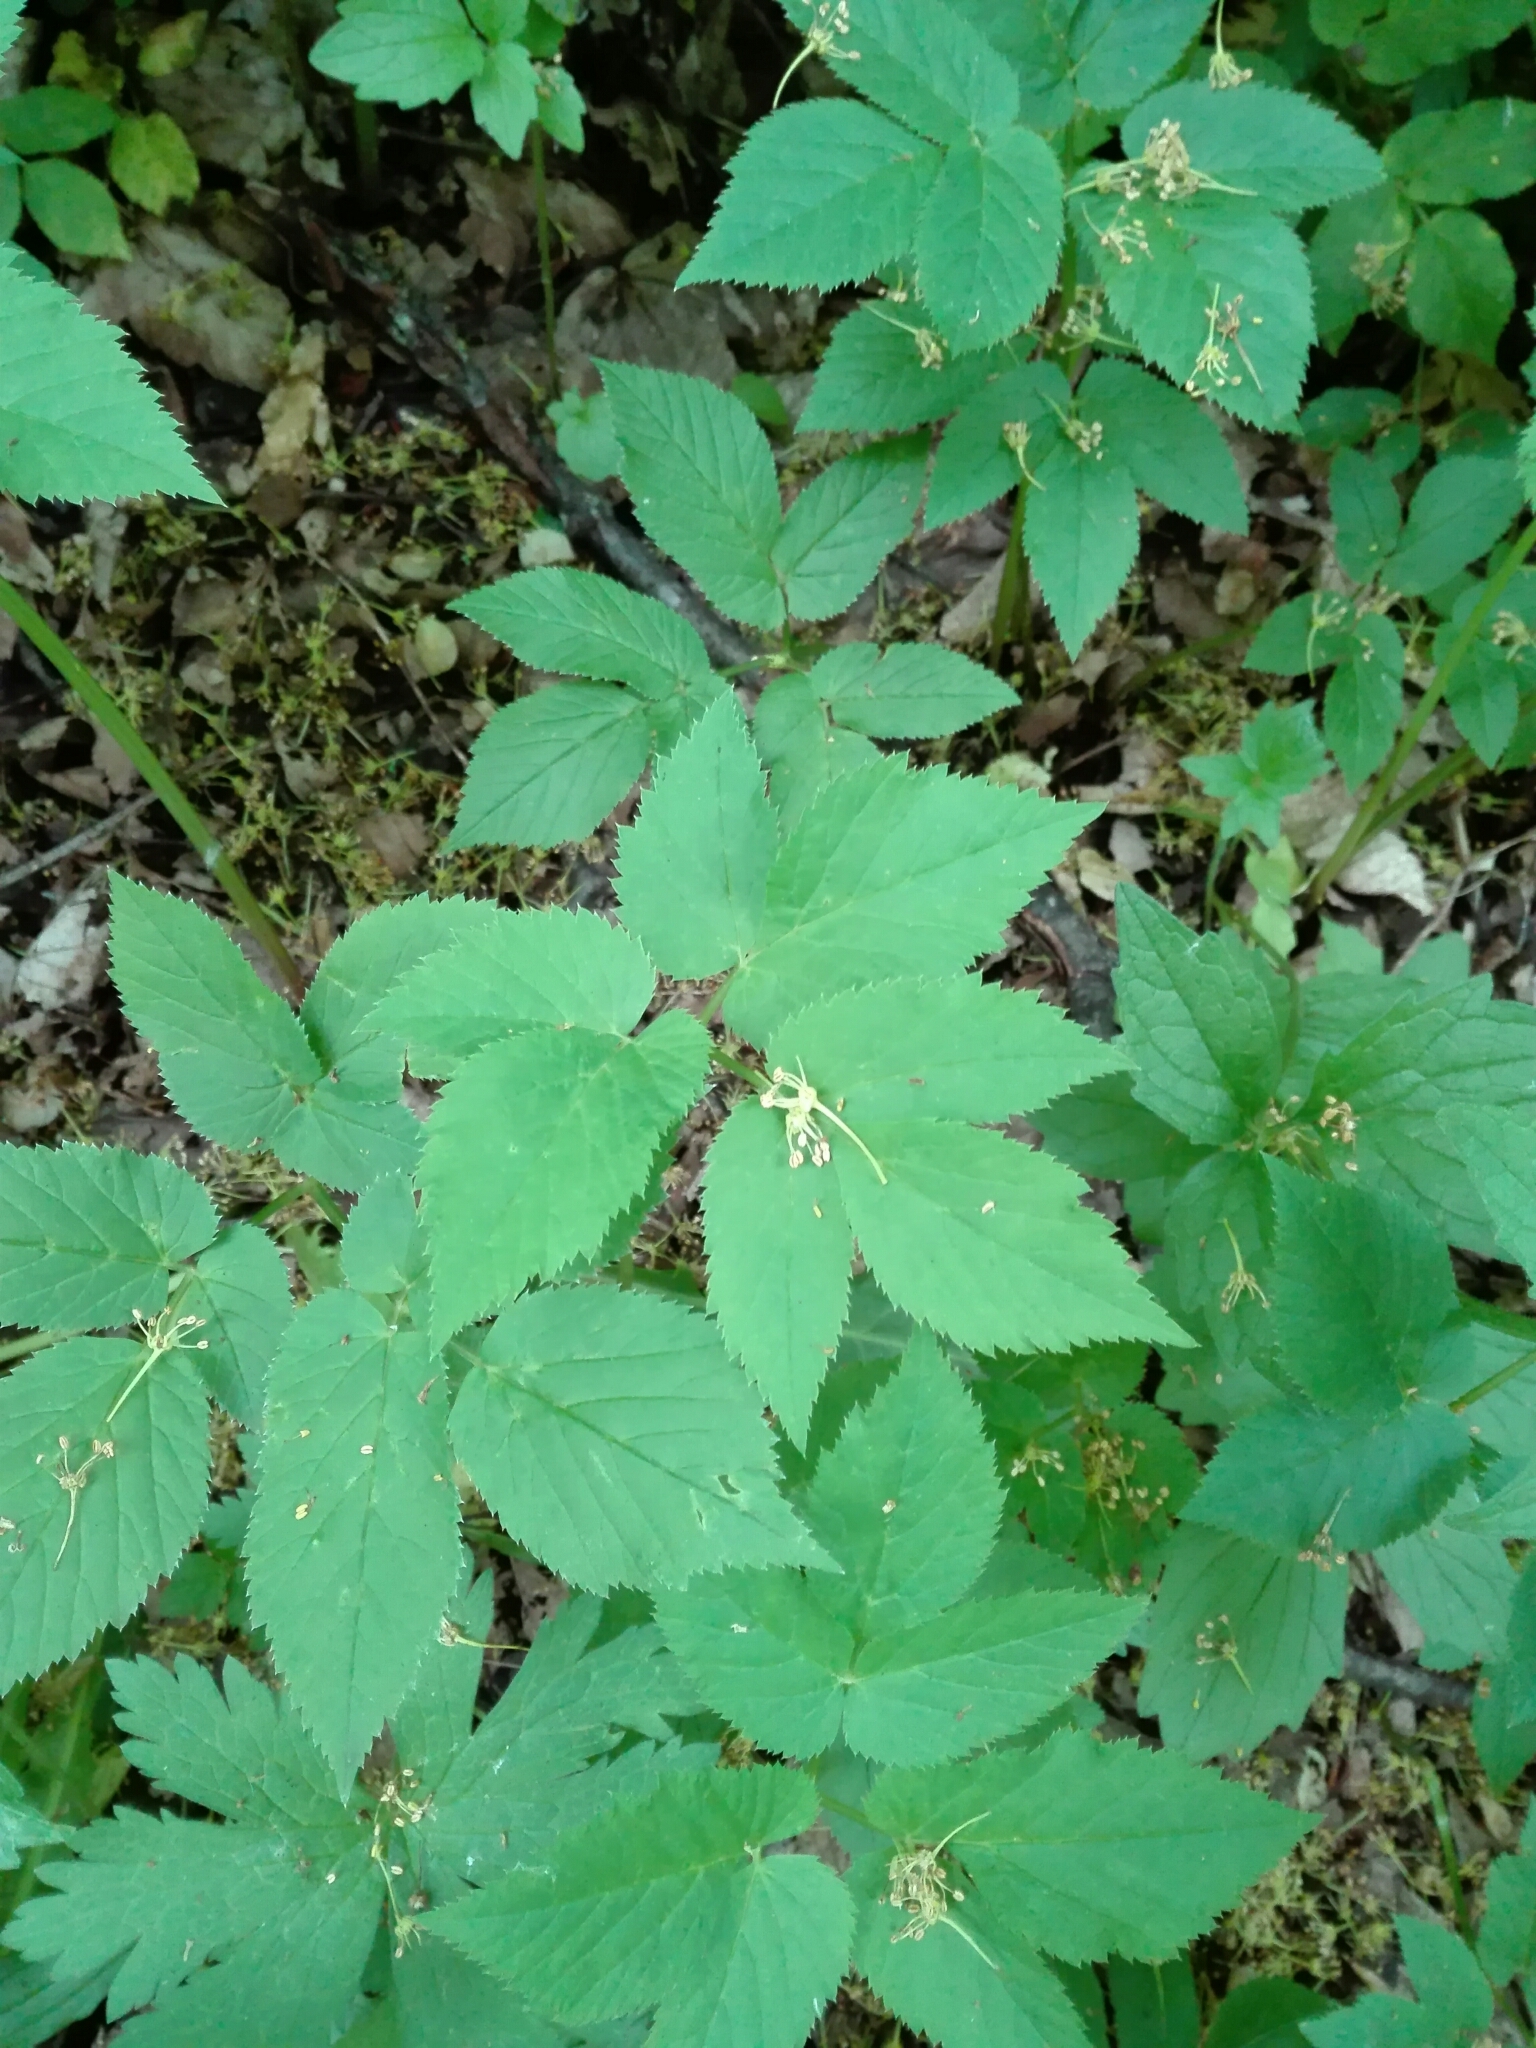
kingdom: Plantae
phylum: Tracheophyta
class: Magnoliopsida
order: Apiales
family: Apiaceae
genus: Aegopodium
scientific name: Aegopodium podagraria
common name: Ground-elder
